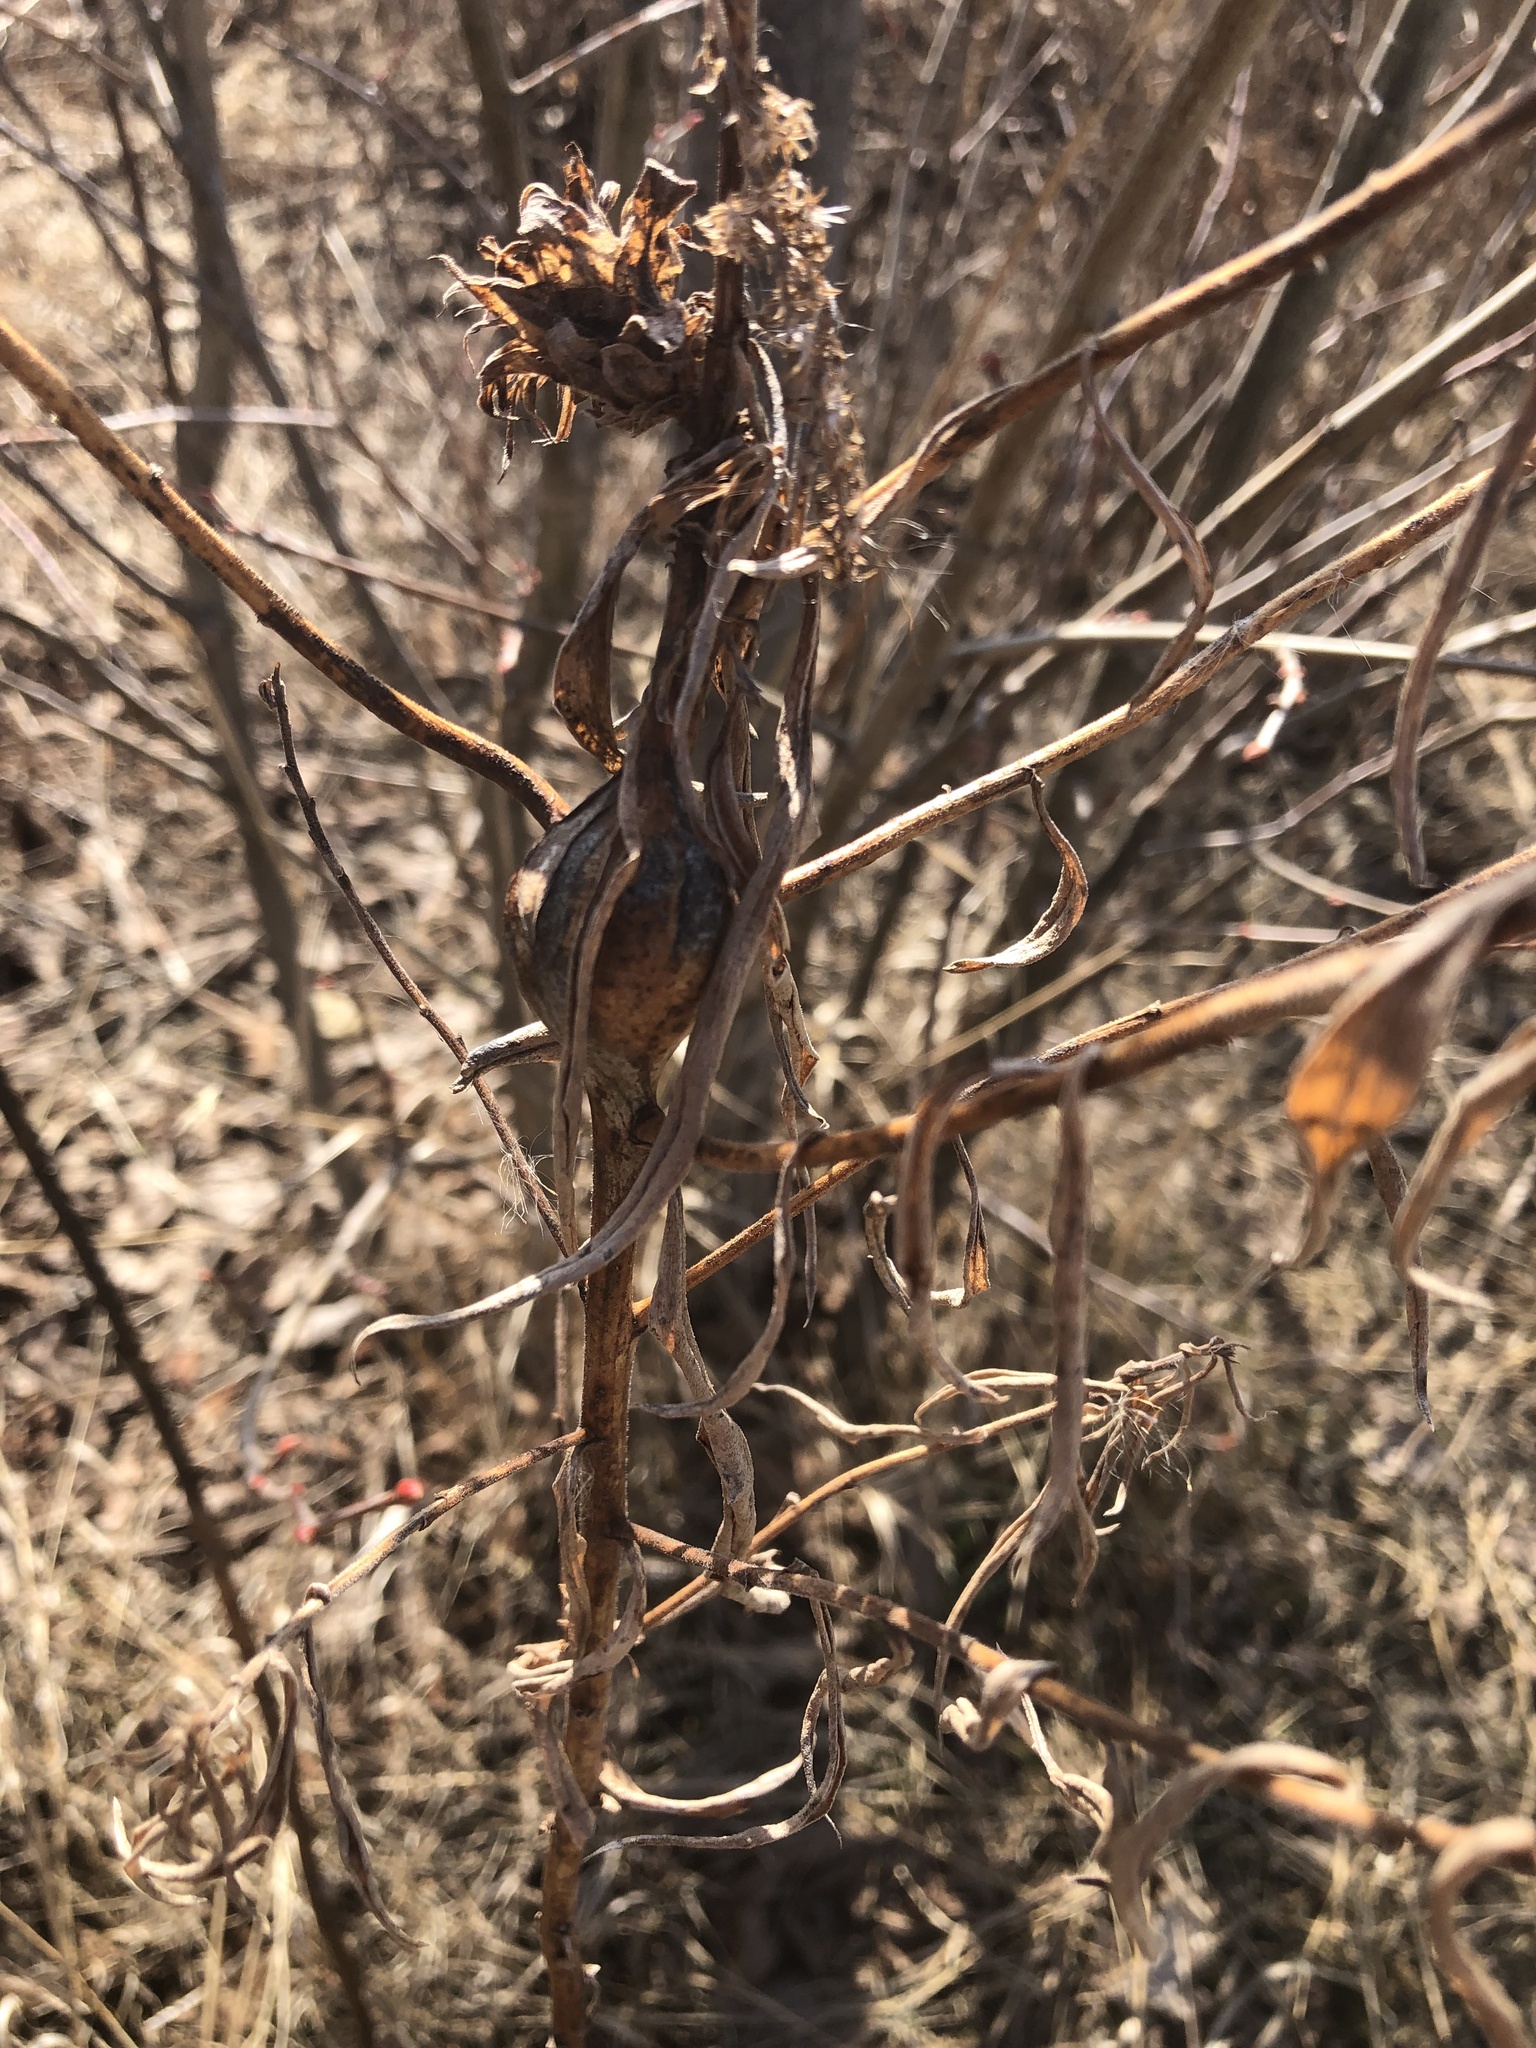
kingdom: Animalia
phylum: Arthropoda
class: Insecta
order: Diptera
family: Tephritidae
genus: Eurosta
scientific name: Eurosta solidaginis
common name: Goldenrod gall fly
